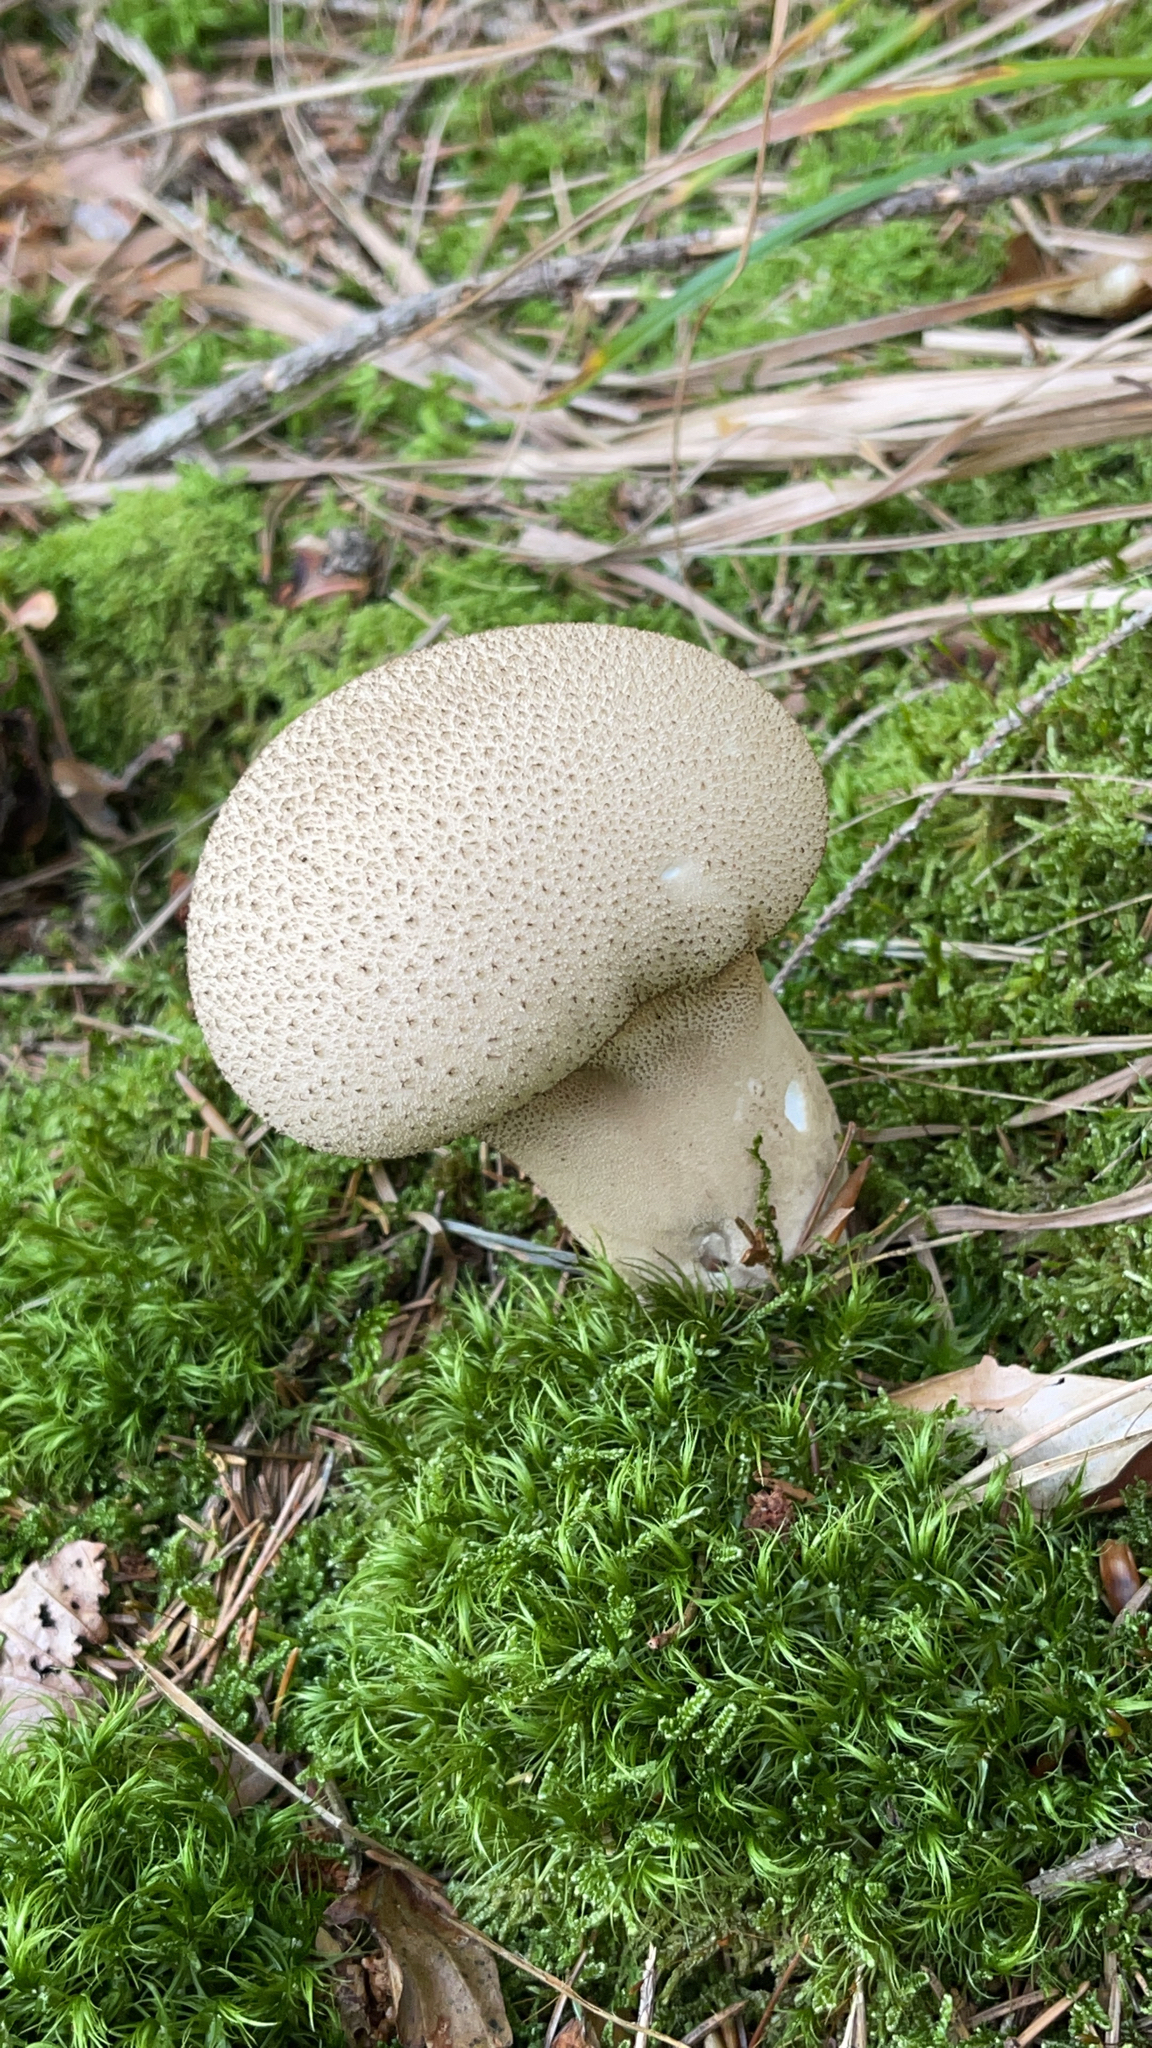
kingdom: Fungi
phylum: Basidiomycota
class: Agaricomycetes
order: Agaricales
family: Lycoperdaceae
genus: Lycoperdon
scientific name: Lycoperdon perlatum
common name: Common puffball
